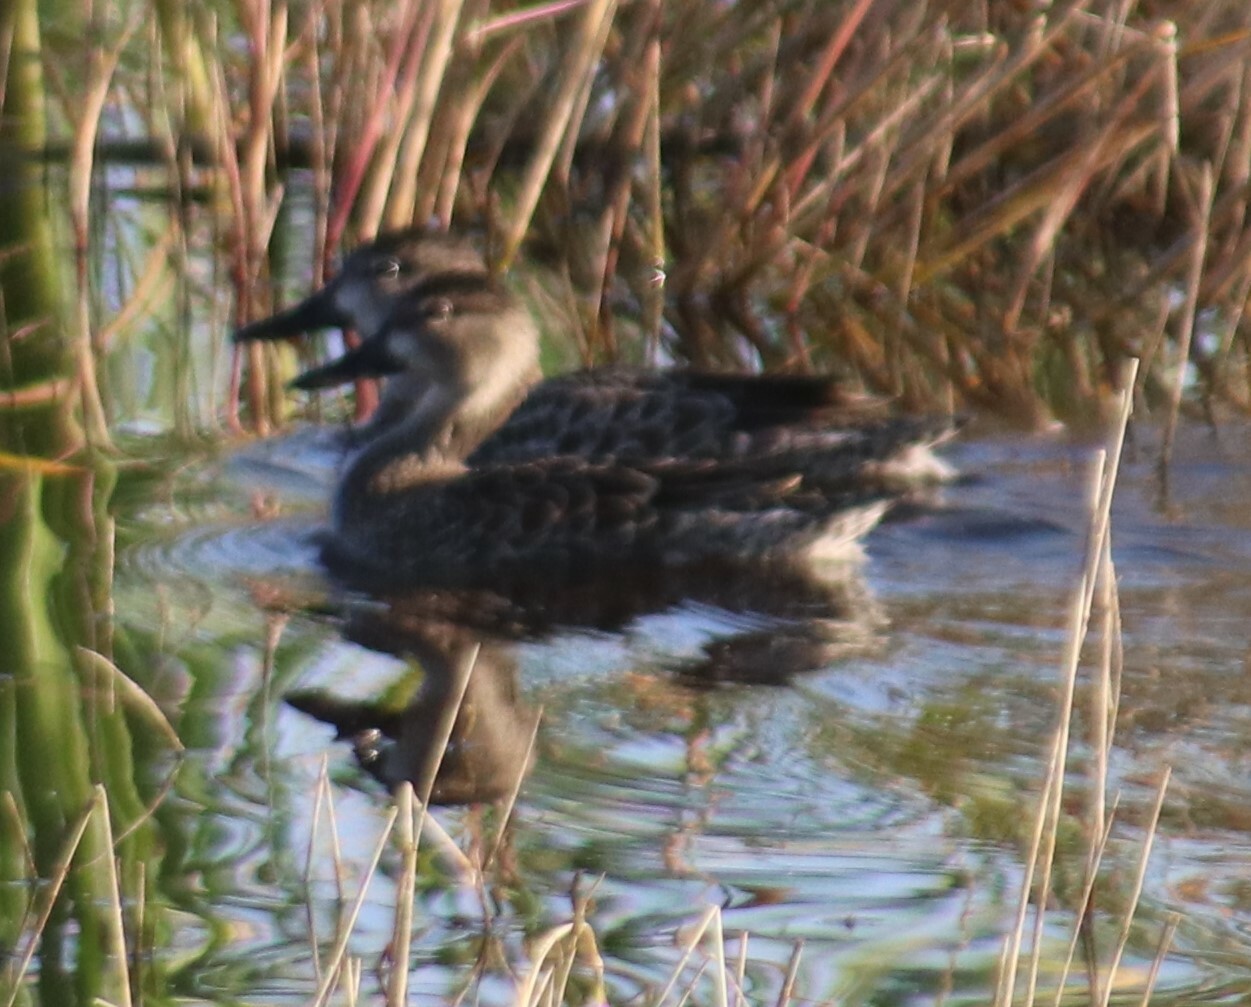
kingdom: Animalia
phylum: Chordata
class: Aves
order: Anseriformes
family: Anatidae
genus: Spatula
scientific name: Spatula discors
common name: Blue-winged teal
